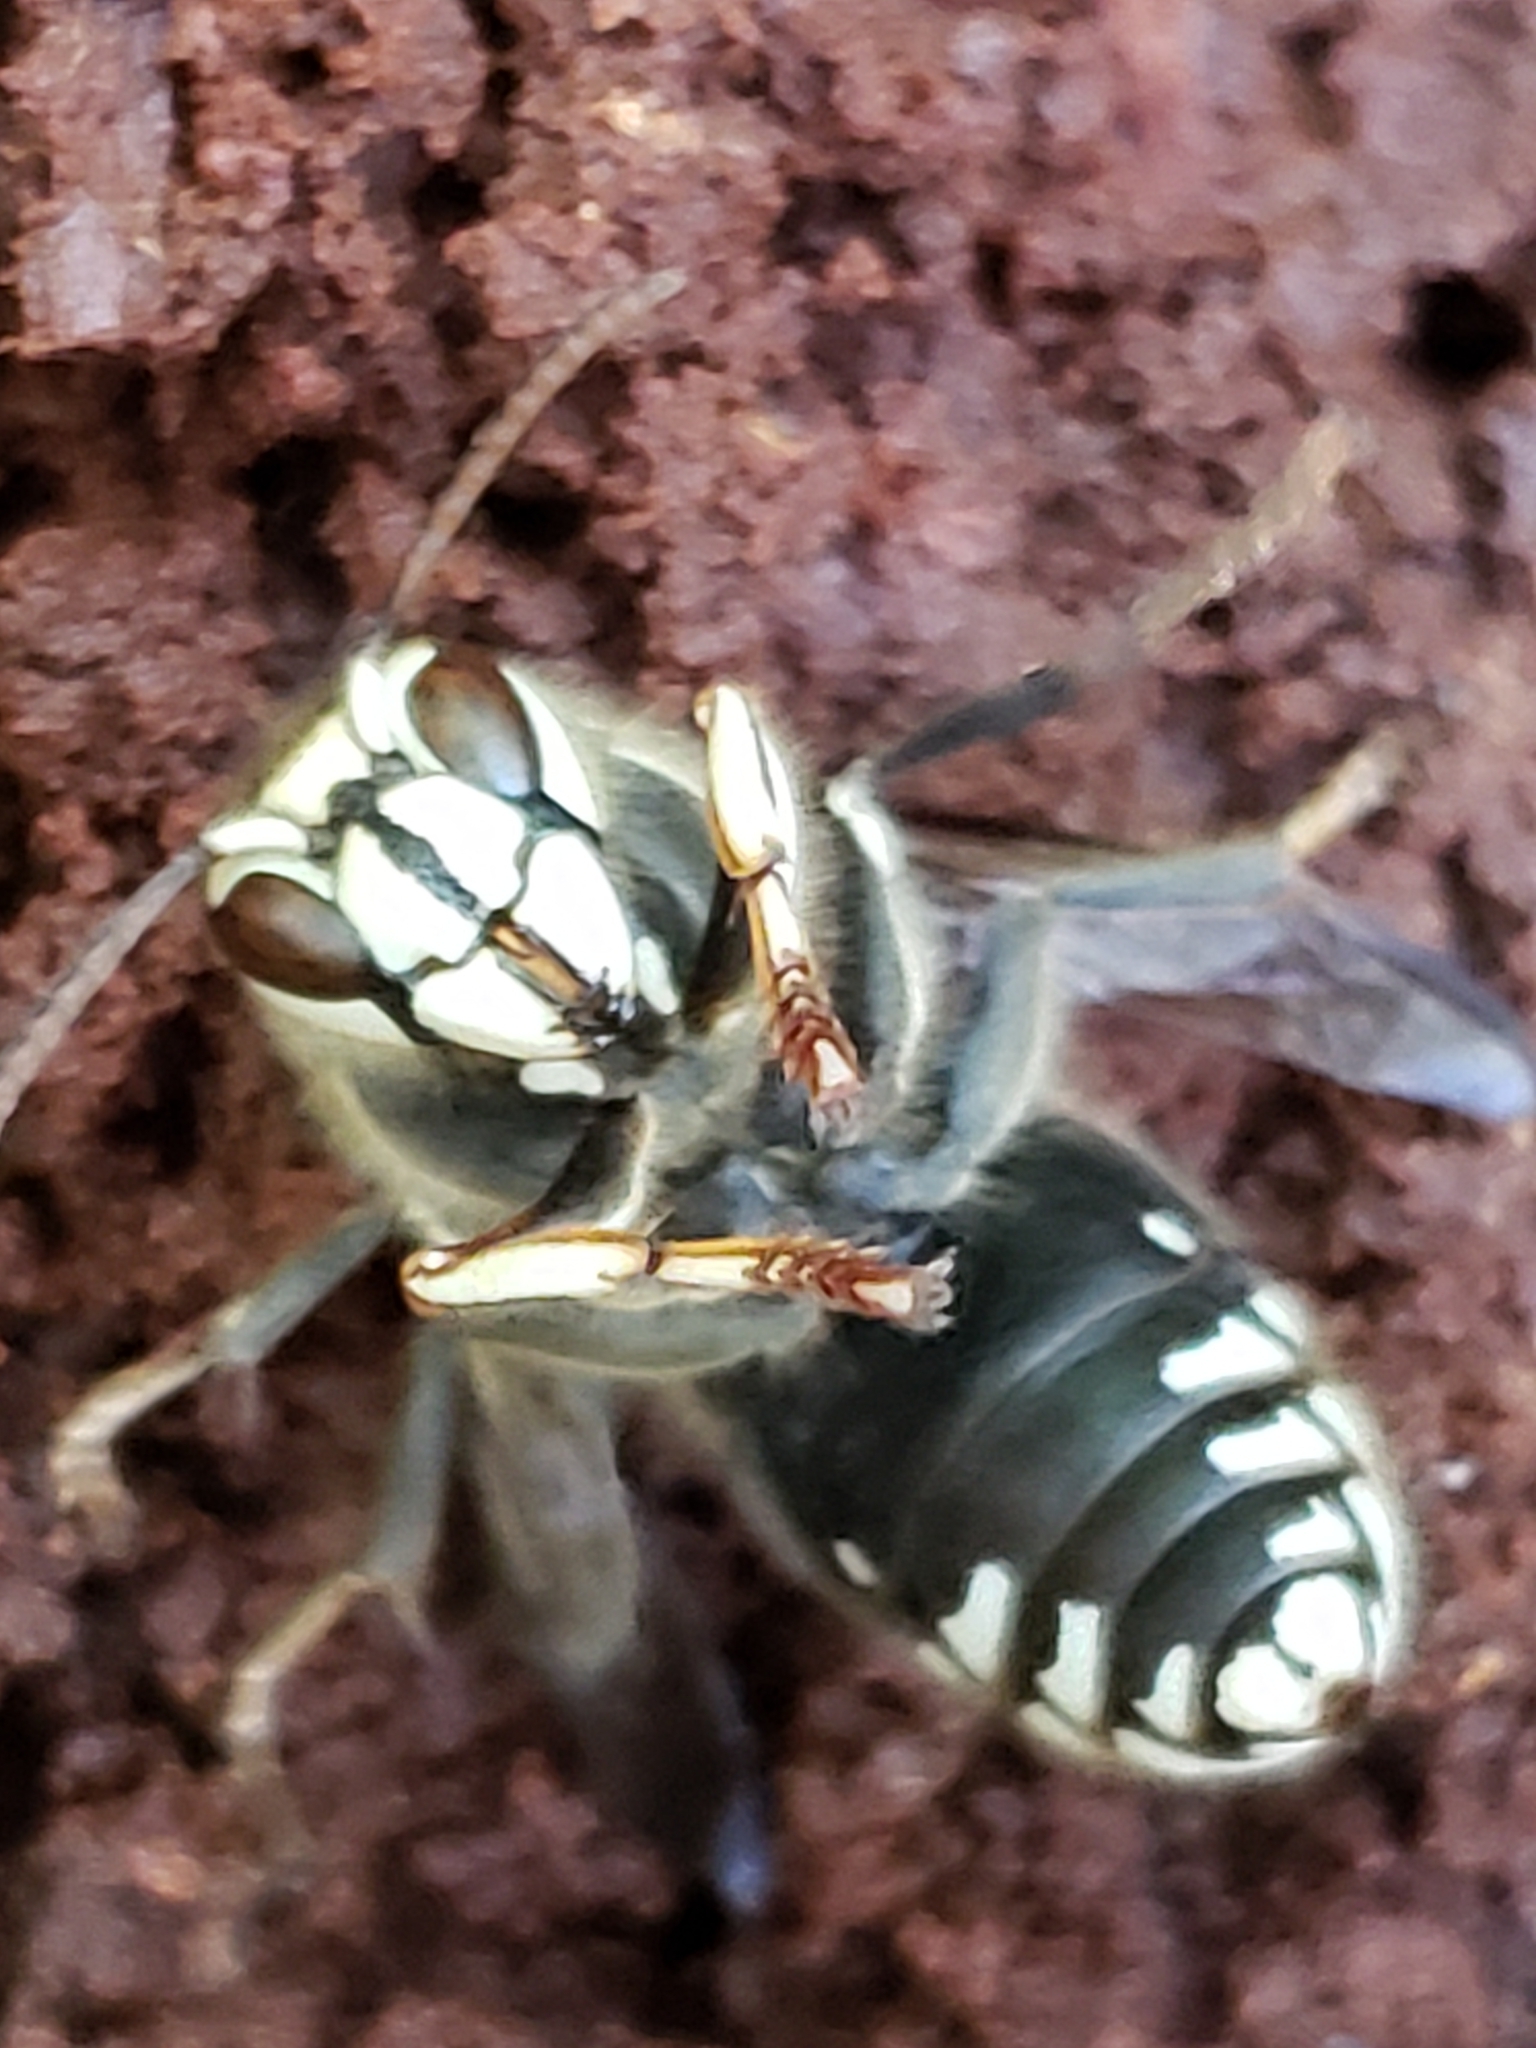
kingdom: Animalia
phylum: Arthropoda
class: Insecta
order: Hymenoptera
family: Vespidae
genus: Dolichovespula
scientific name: Dolichovespula maculata
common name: Bald-faced hornet
